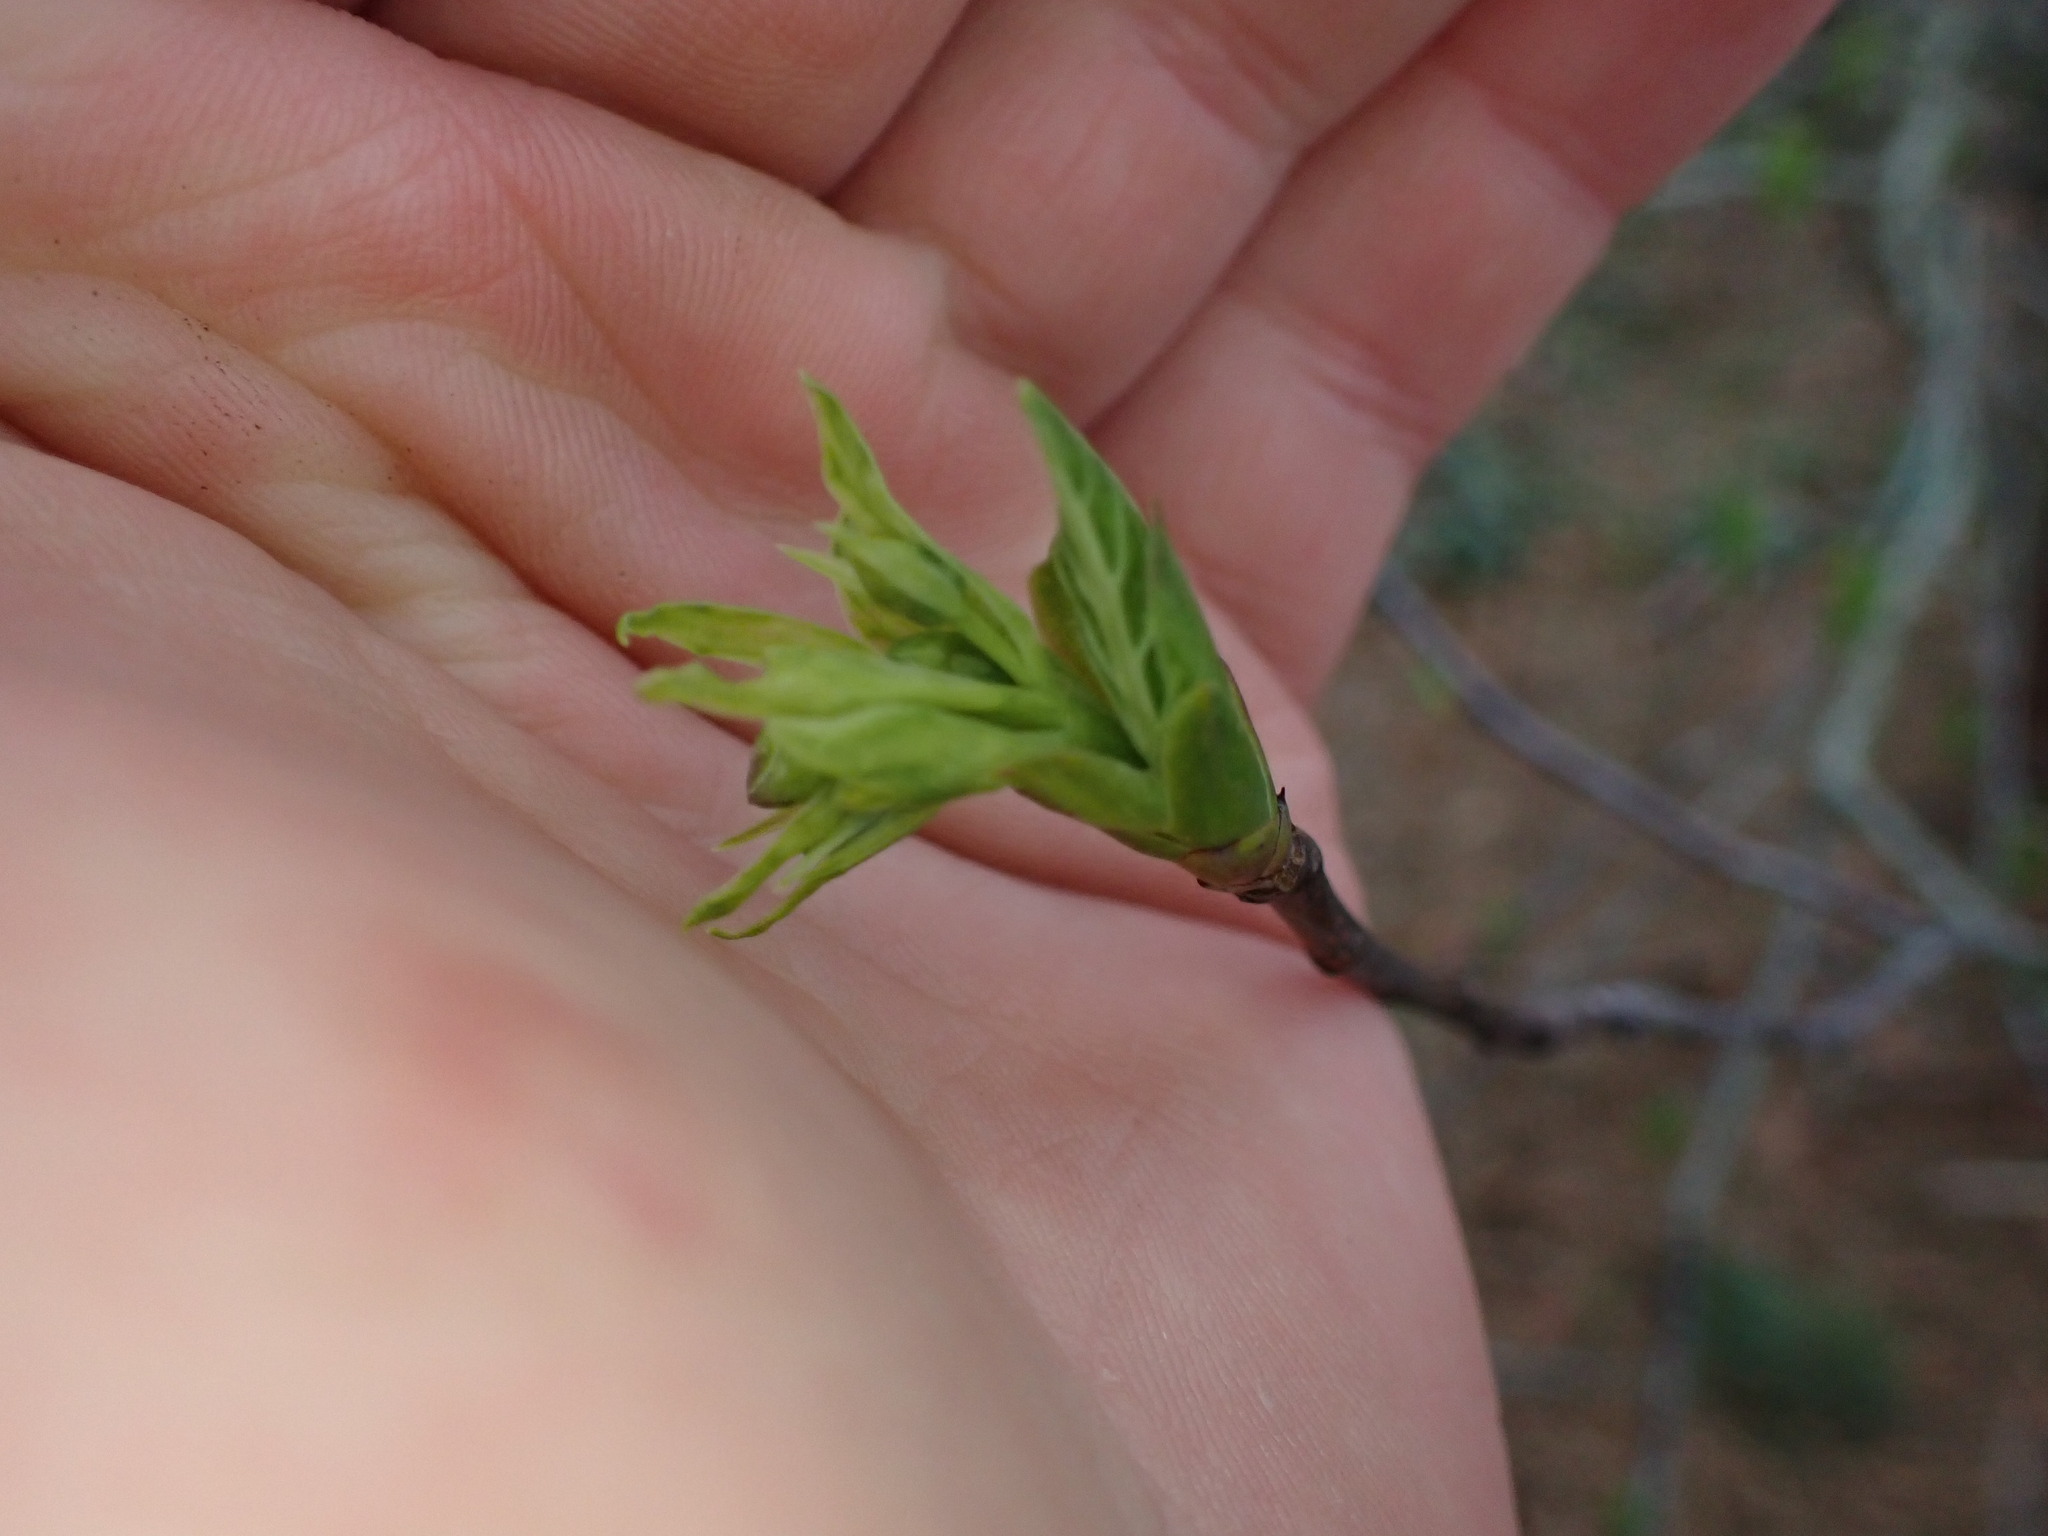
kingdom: Plantae
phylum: Tracheophyta
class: Magnoliopsida
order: Rosales
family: Rosaceae
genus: Oemleria
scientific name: Oemleria cerasiformis
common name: Osoberry
